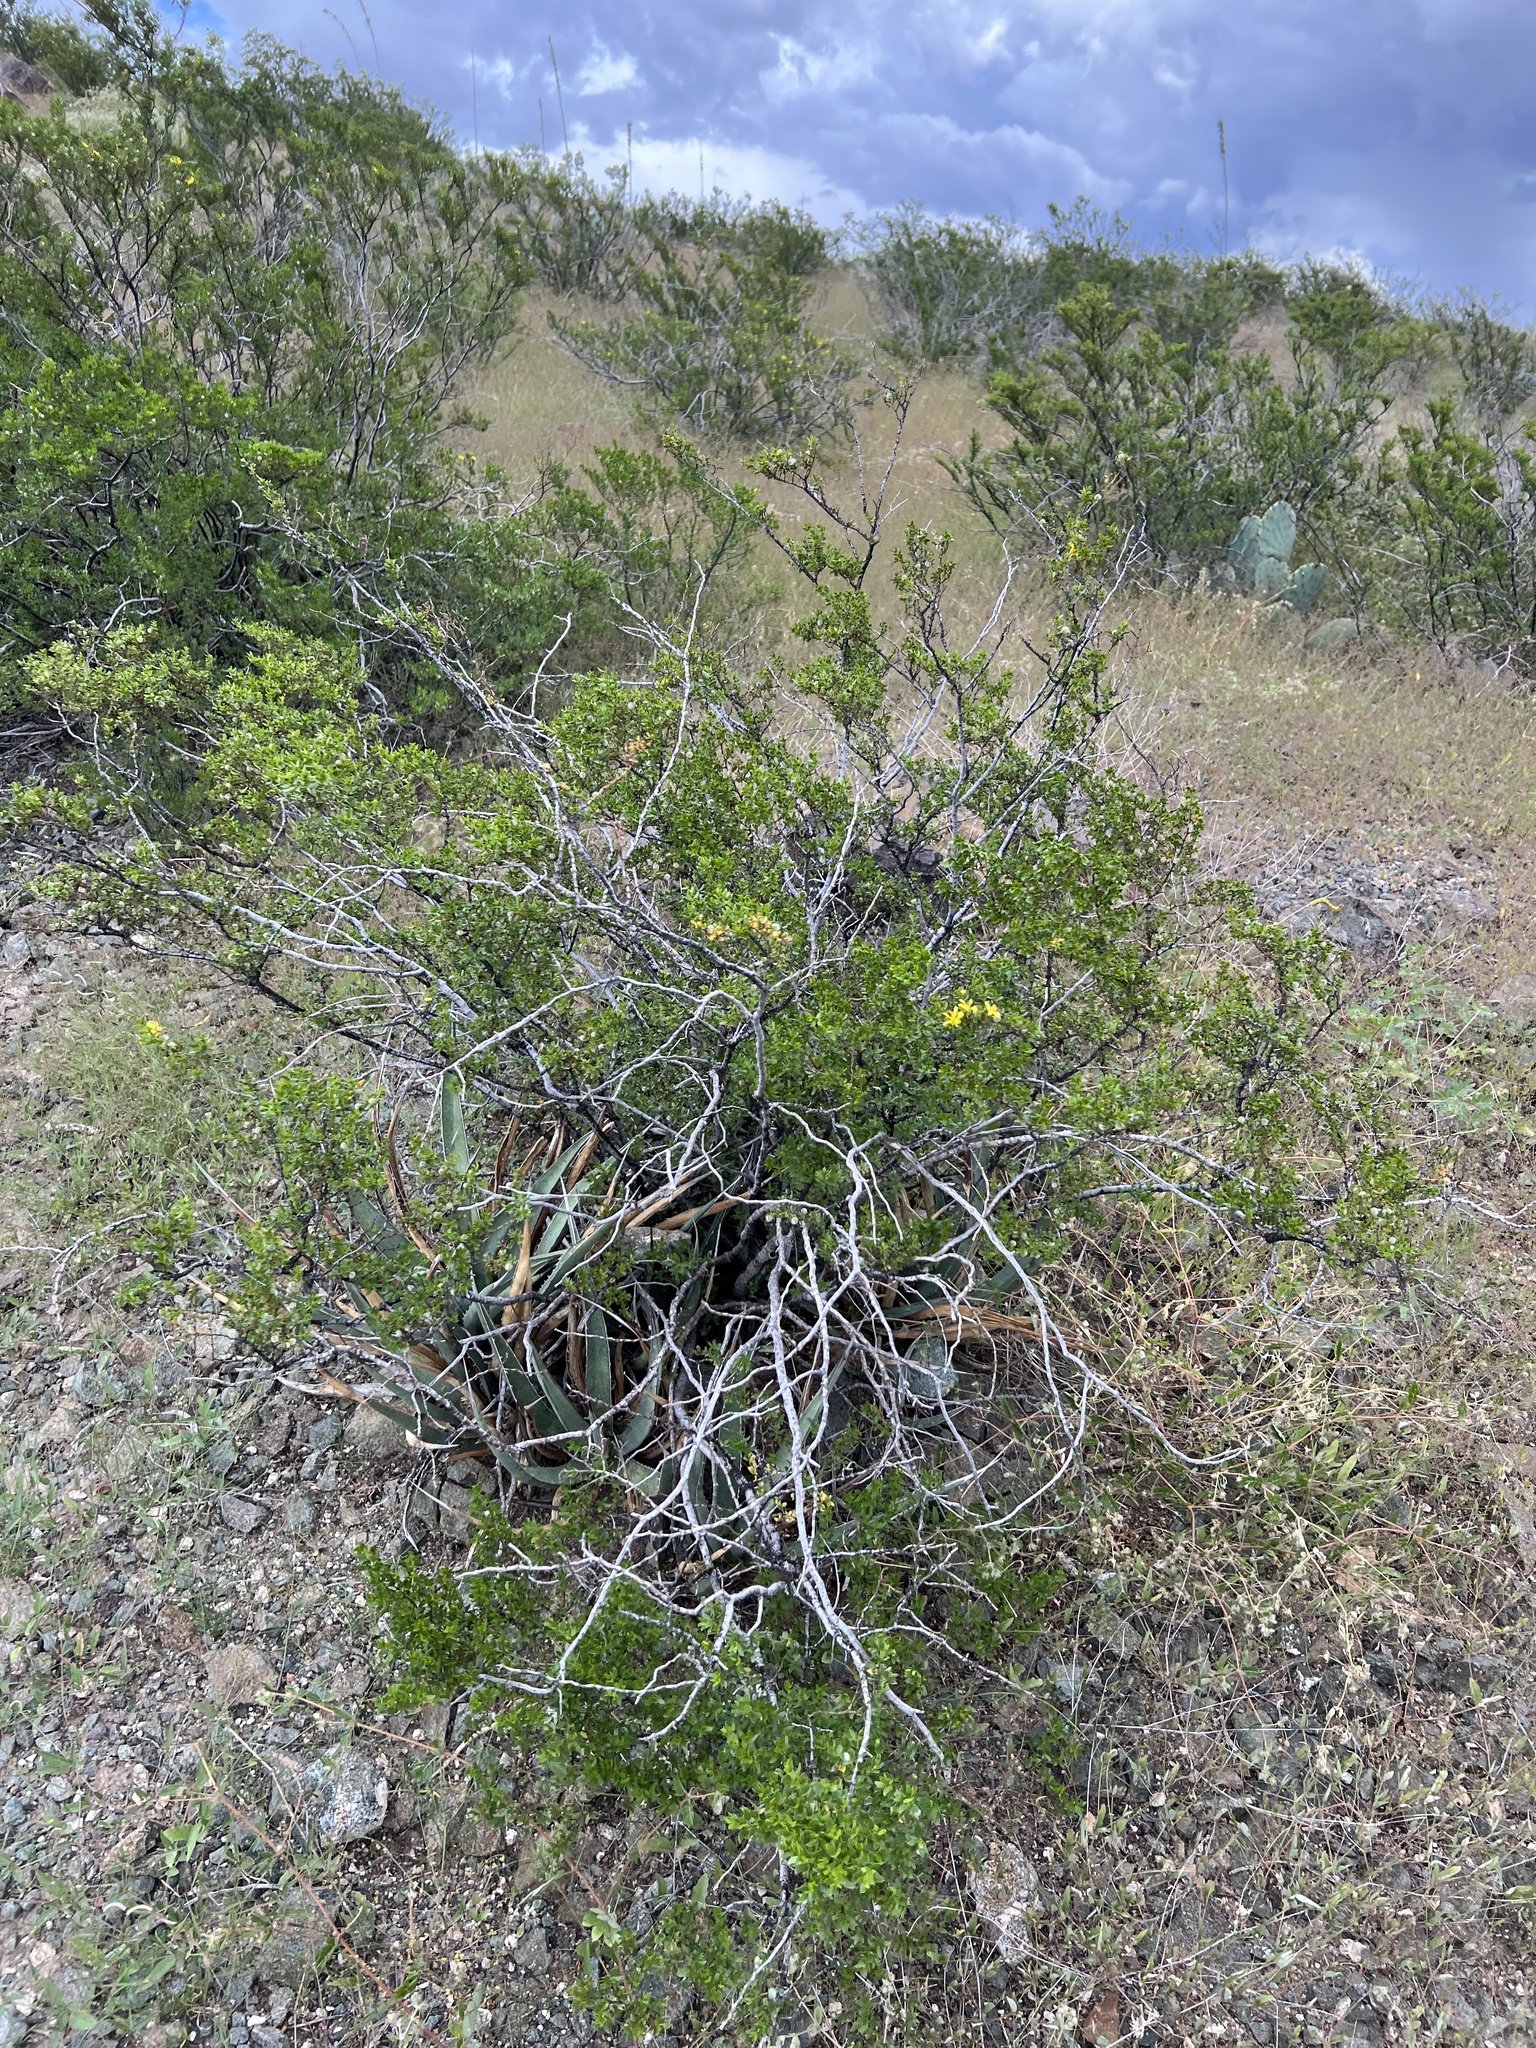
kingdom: Plantae
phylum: Tracheophyta
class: Magnoliopsida
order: Zygophyllales
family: Zygophyllaceae
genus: Larrea
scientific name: Larrea tridentata
